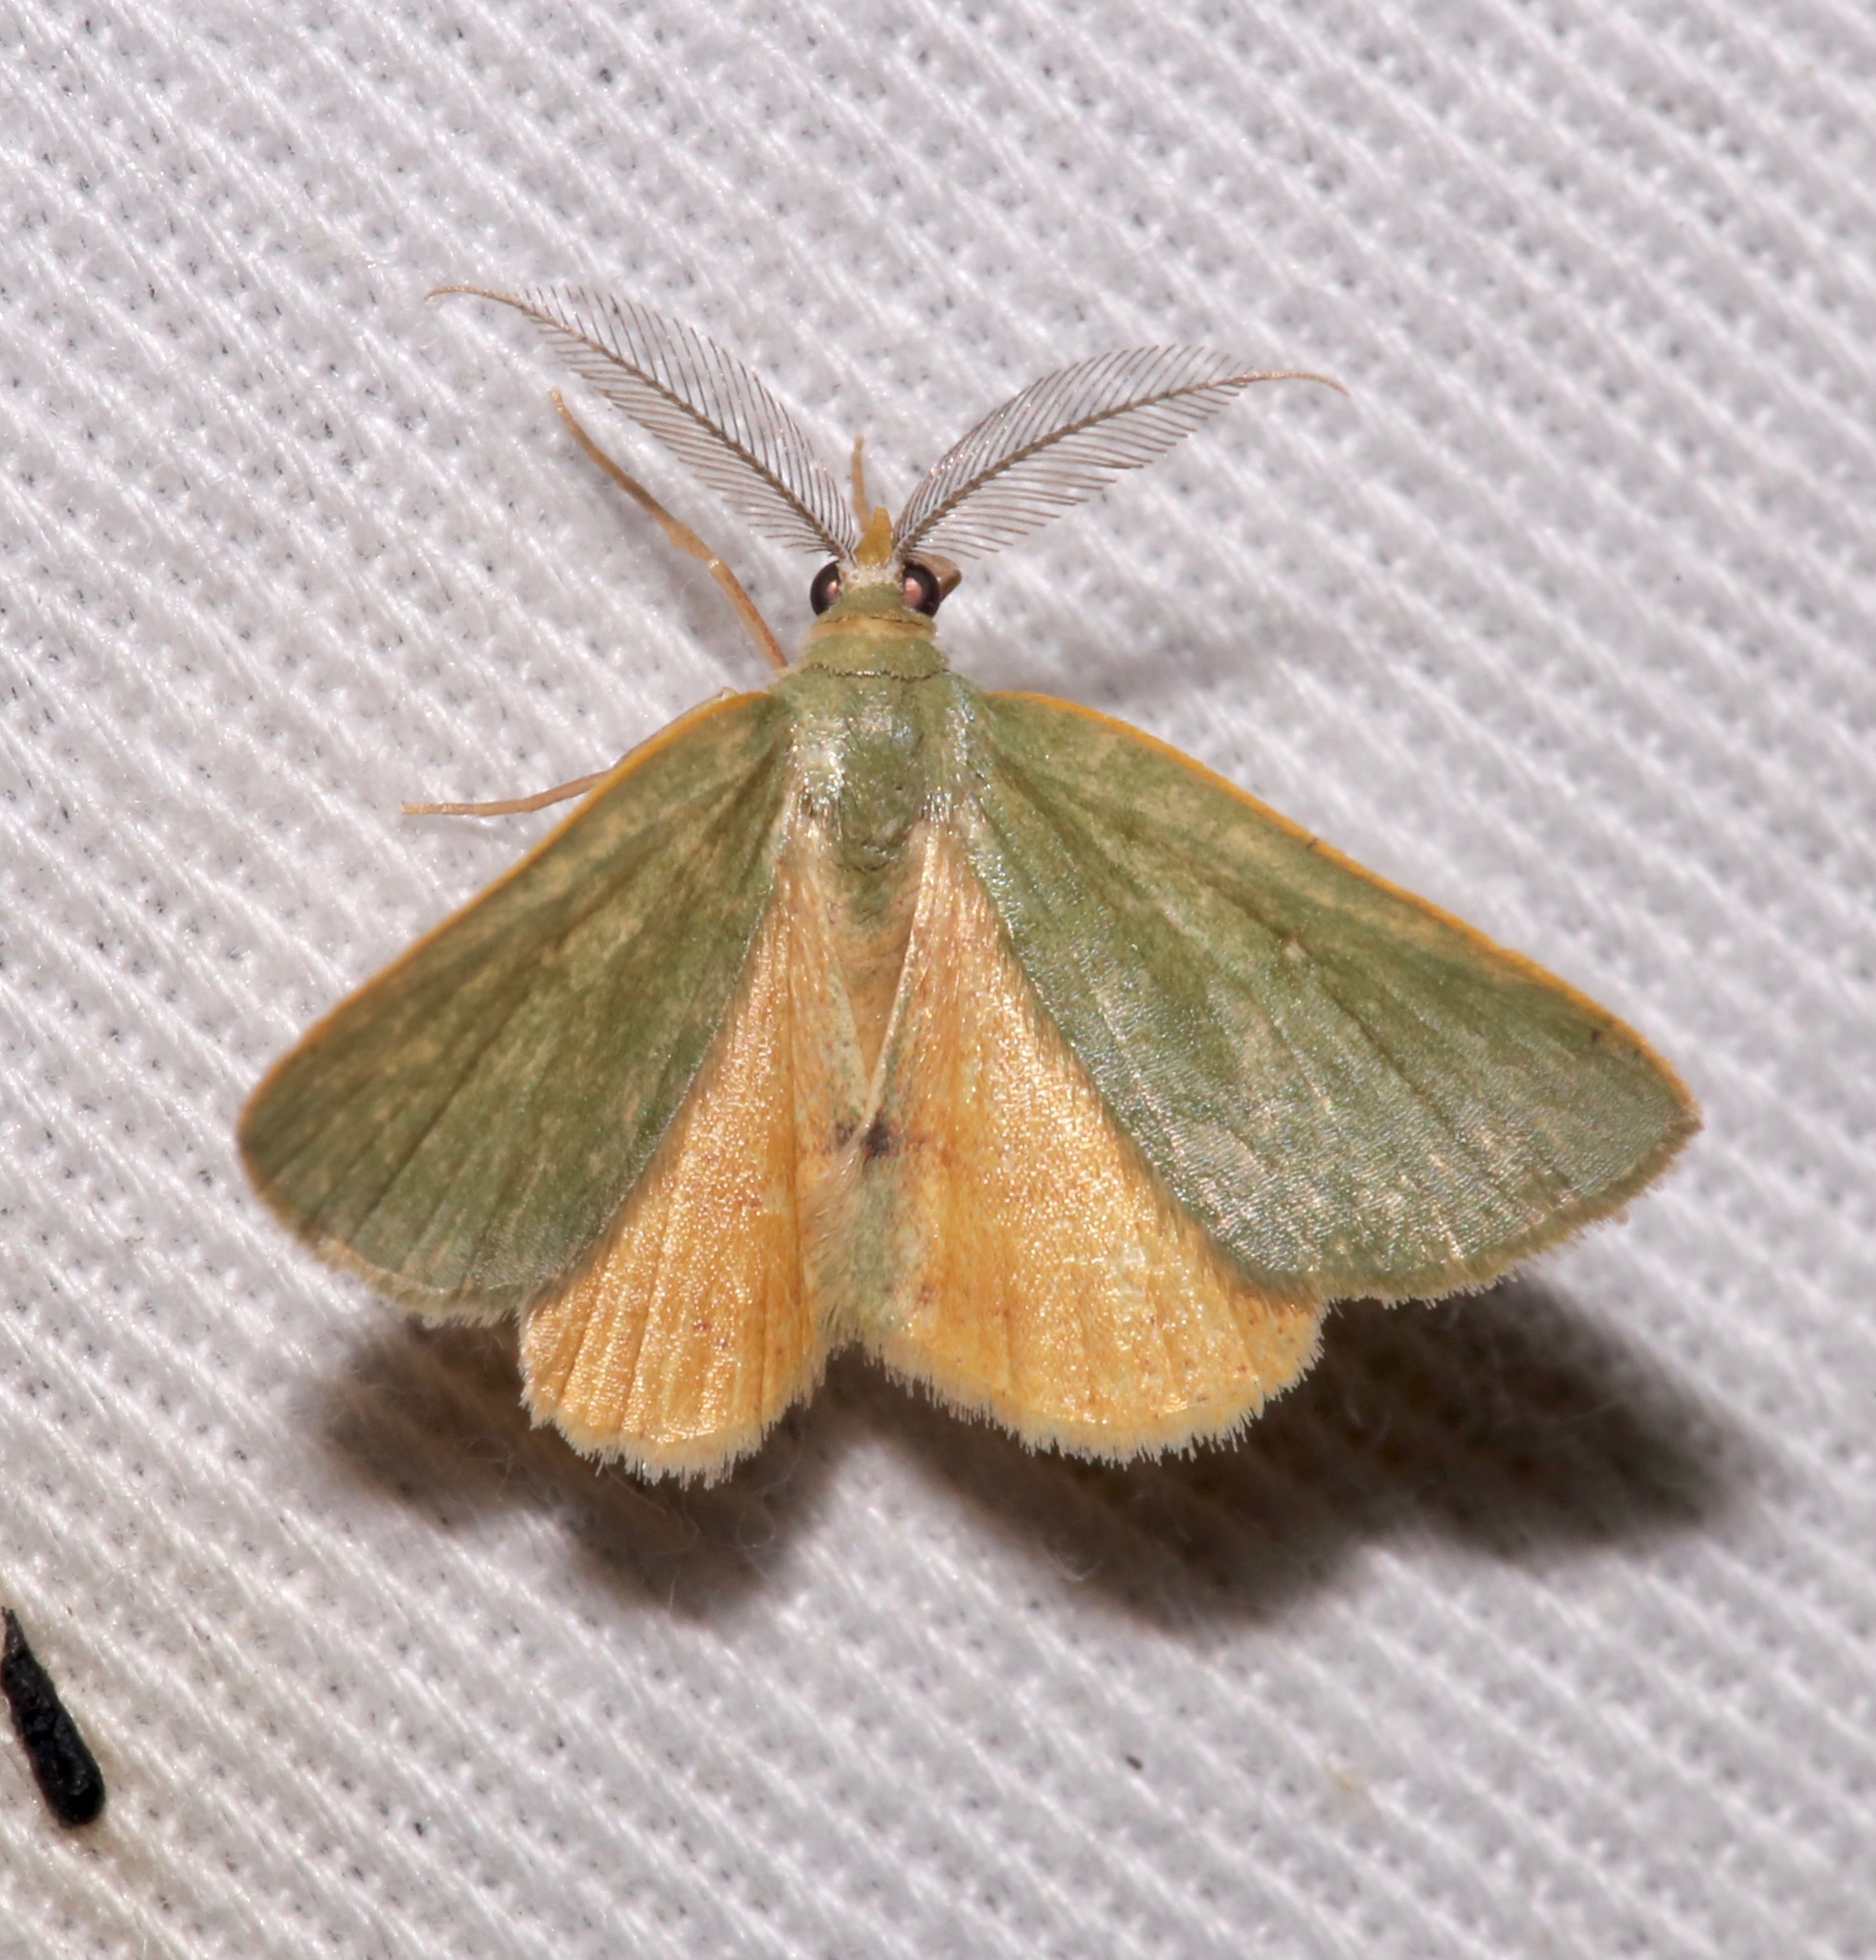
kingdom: Animalia
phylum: Arthropoda
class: Insecta
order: Lepidoptera
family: Geometridae
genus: Chloraspilates
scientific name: Chloraspilates bicoloraria
